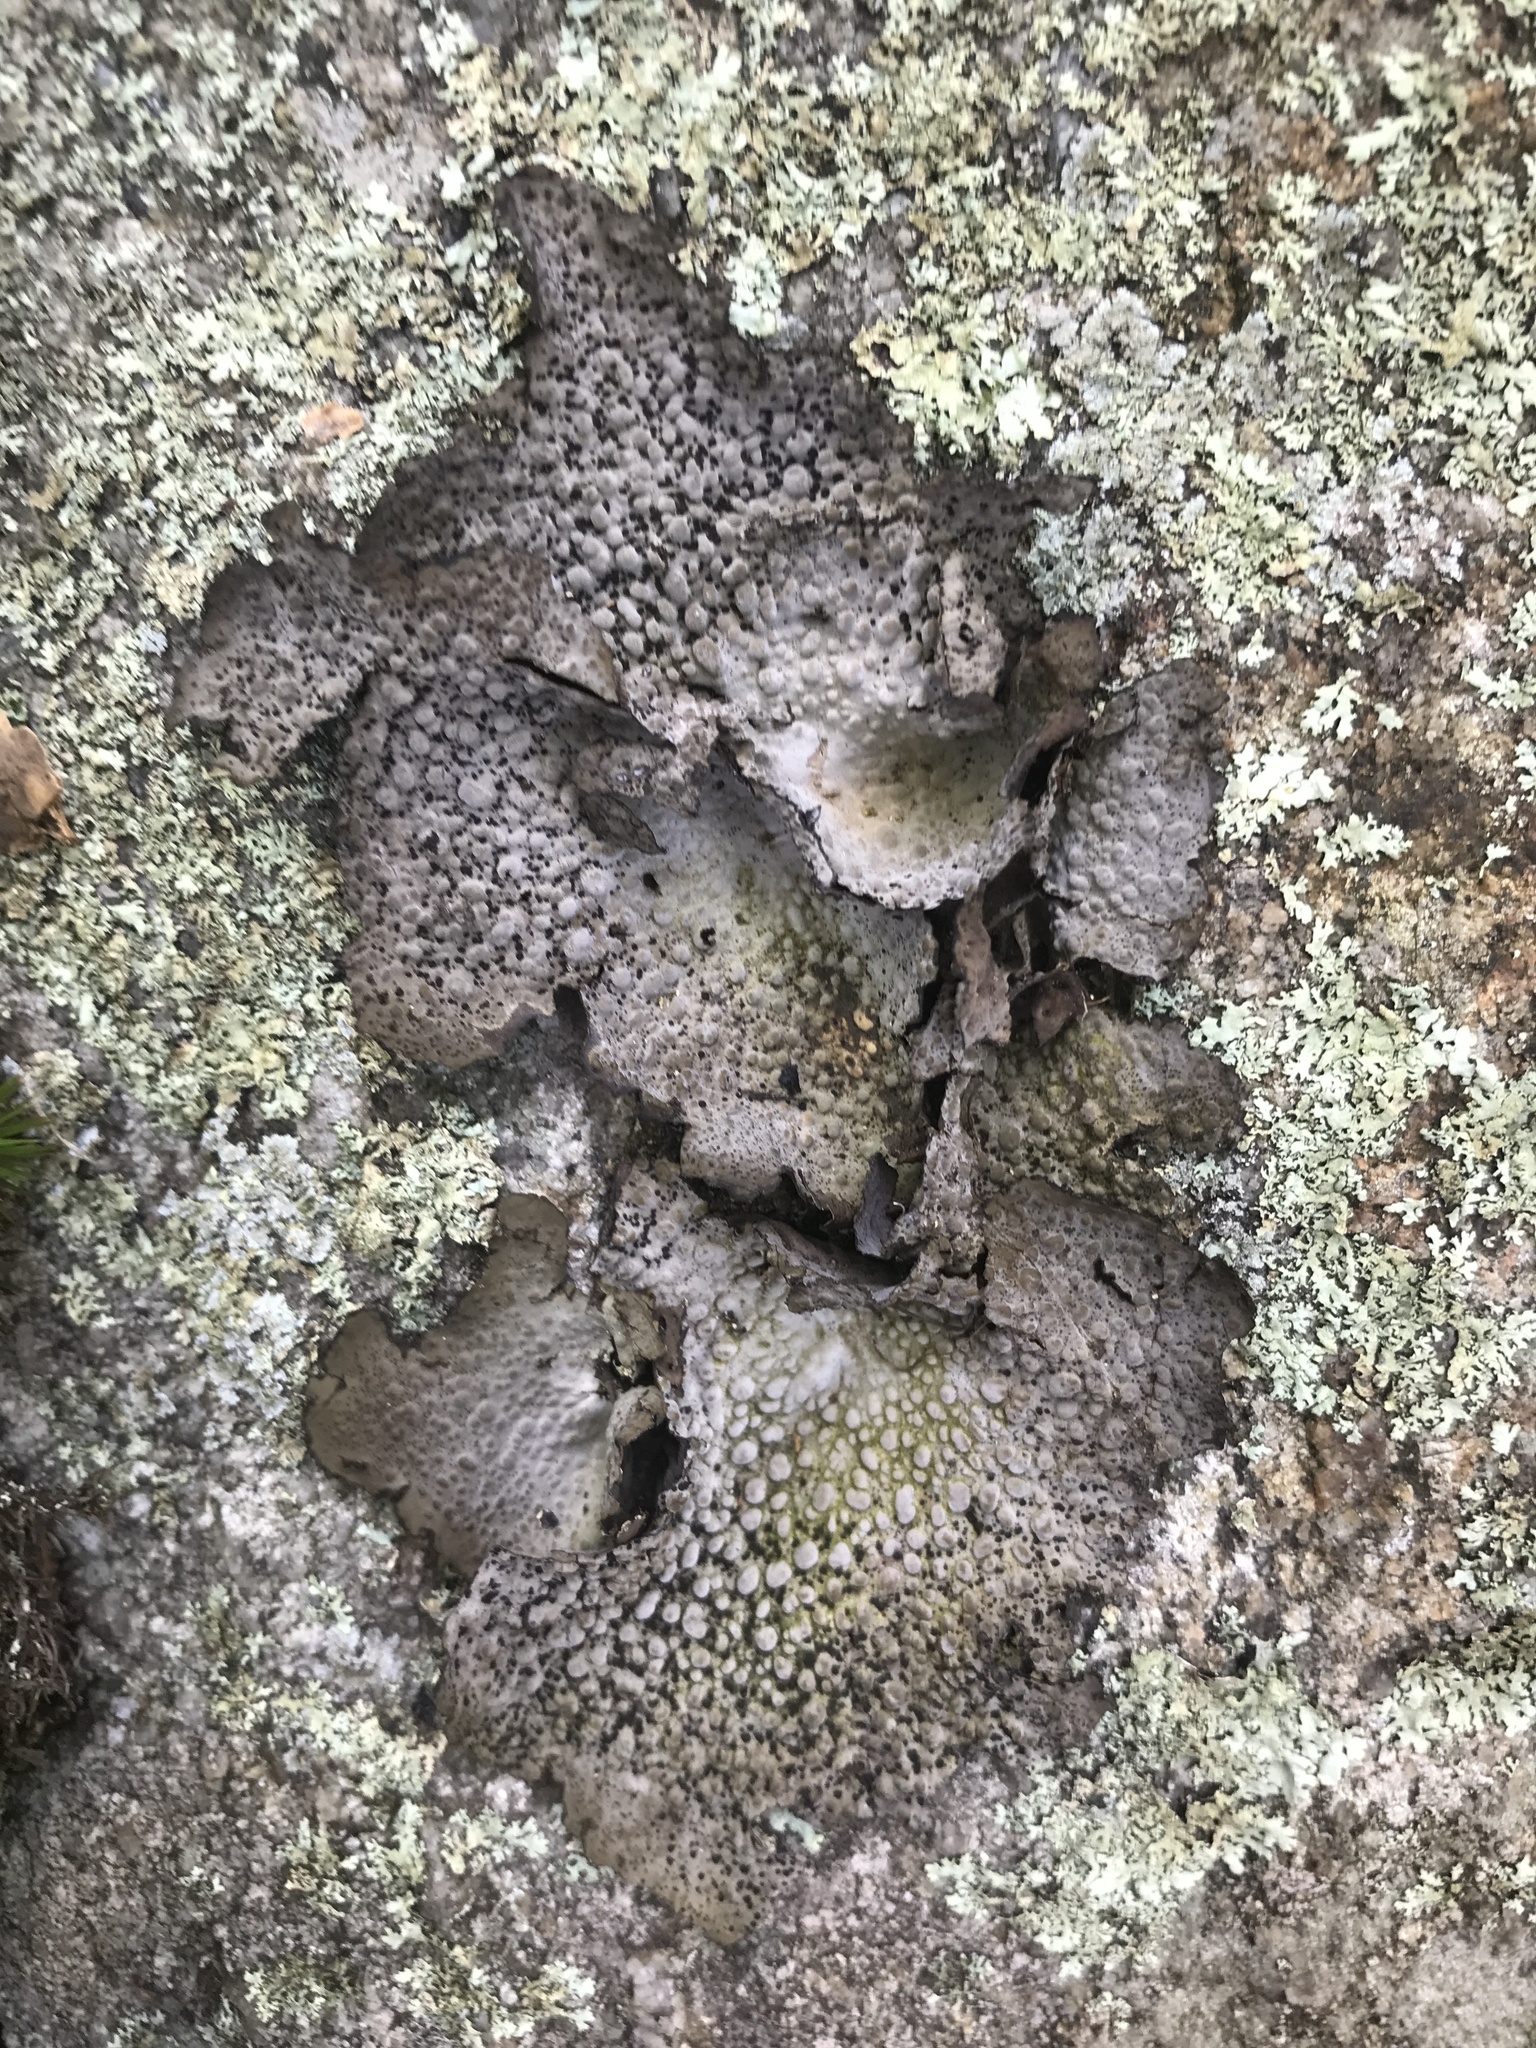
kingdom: Fungi
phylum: Ascomycota
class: Lecanoromycetes
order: Umbilicariales
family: Umbilicariaceae
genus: Lasallia
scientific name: Lasallia papulosa
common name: Common toadskin lichen
